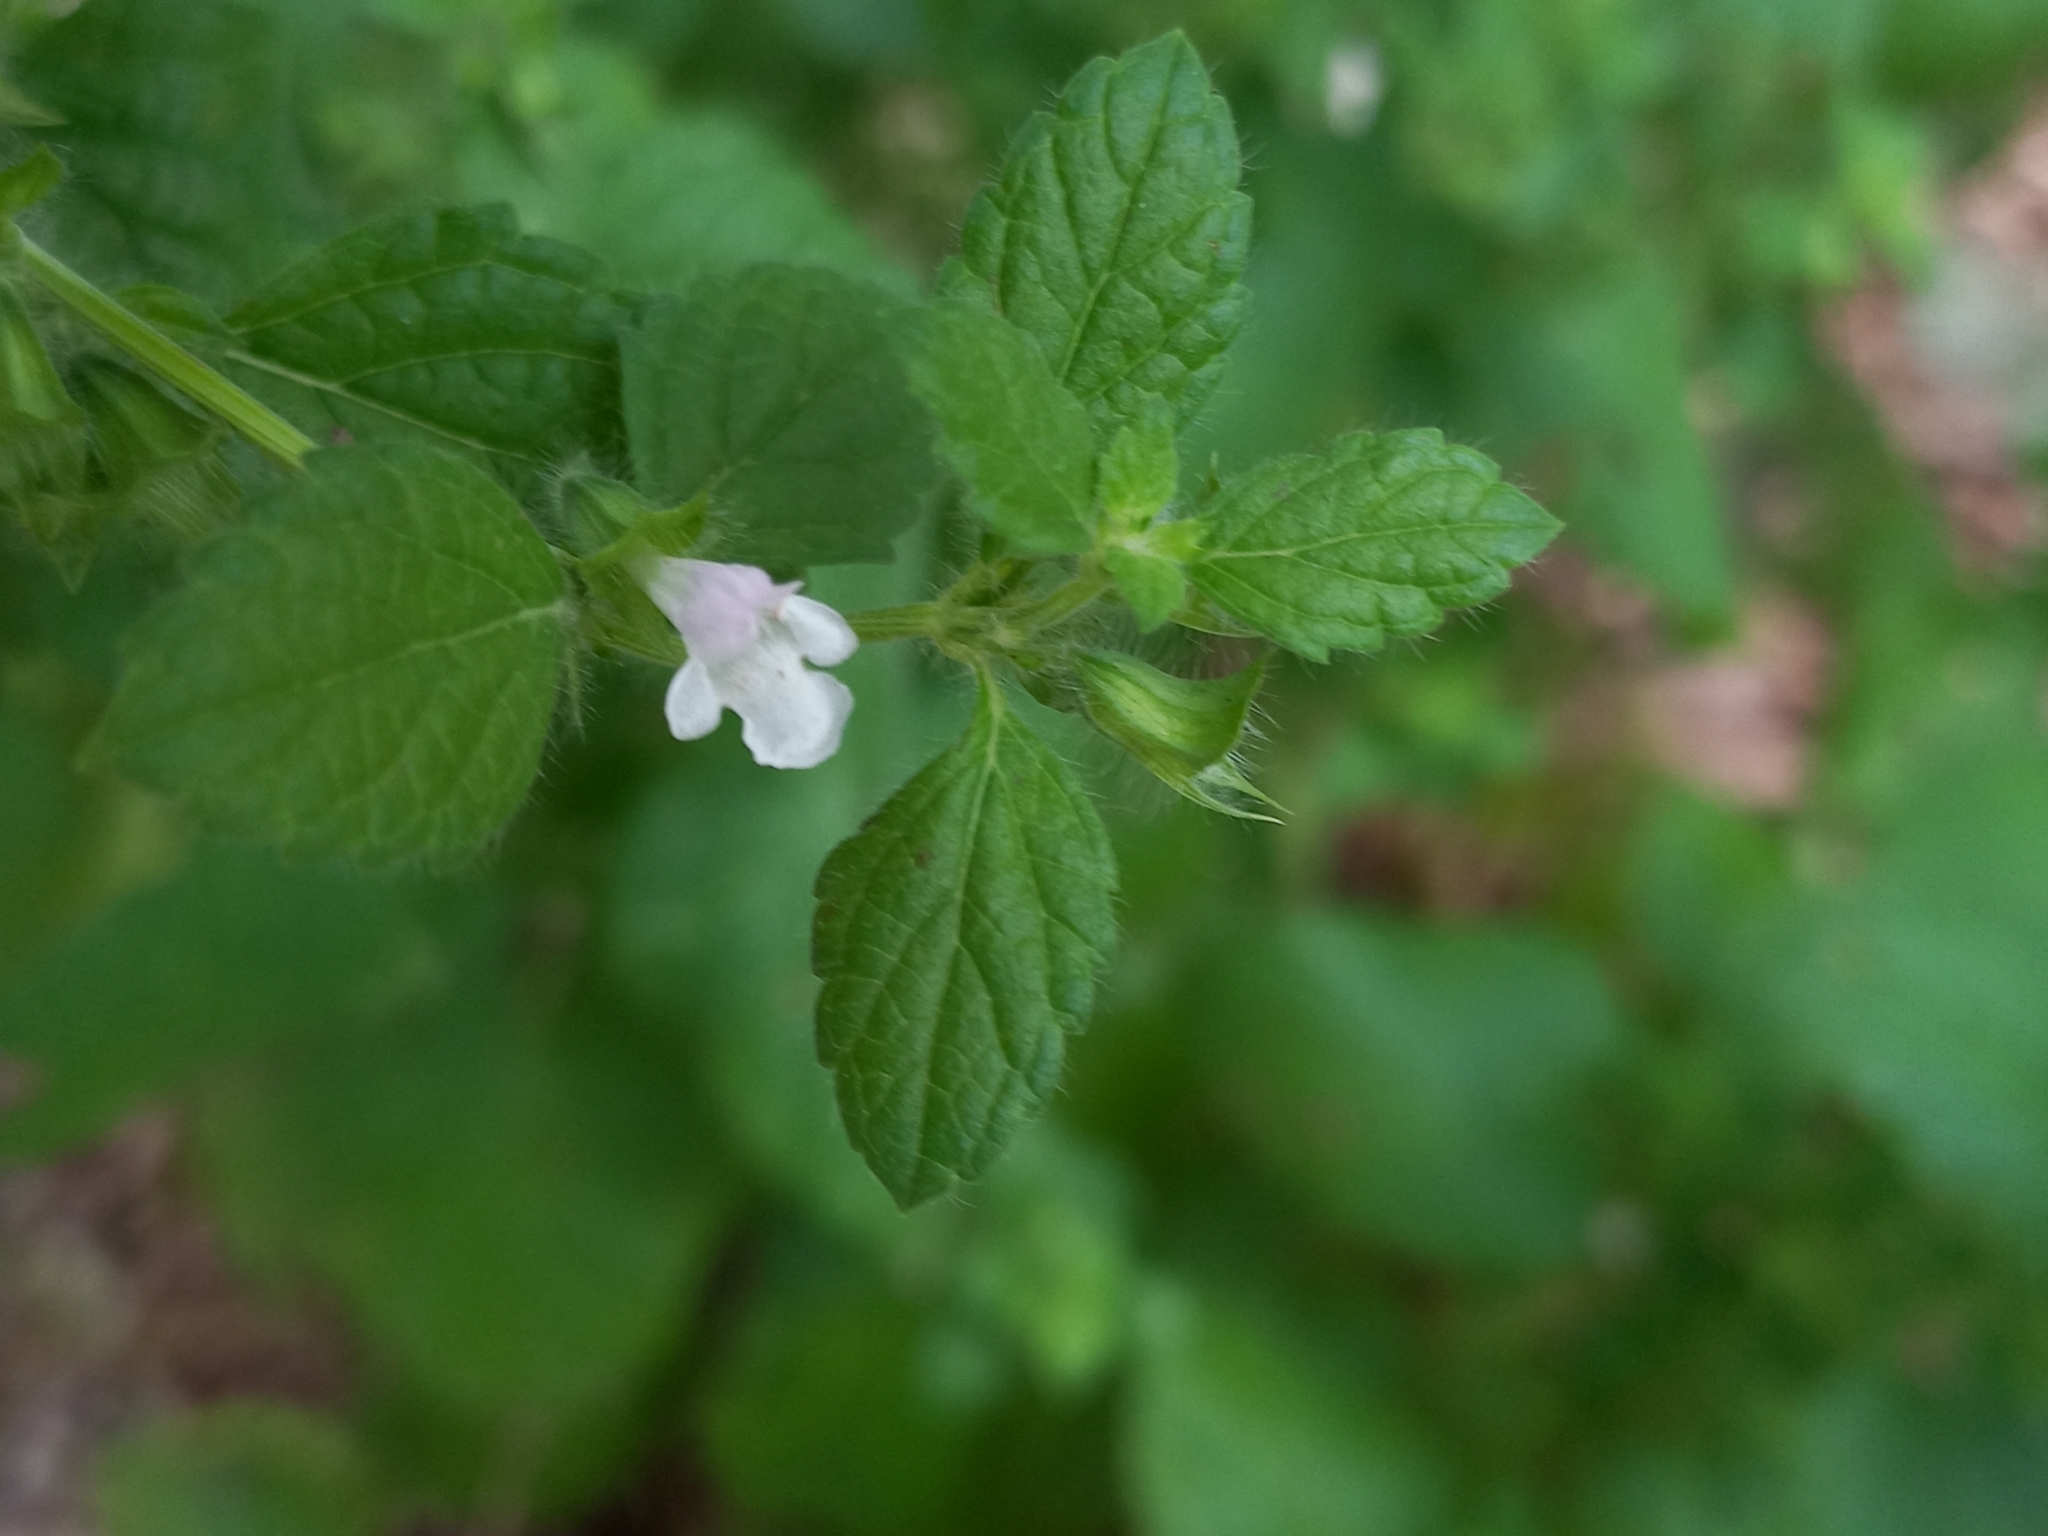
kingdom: Plantae
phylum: Tracheophyta
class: Magnoliopsida
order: Lamiales
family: Lamiaceae
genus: Melissa
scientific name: Melissa officinalis
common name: Balm
